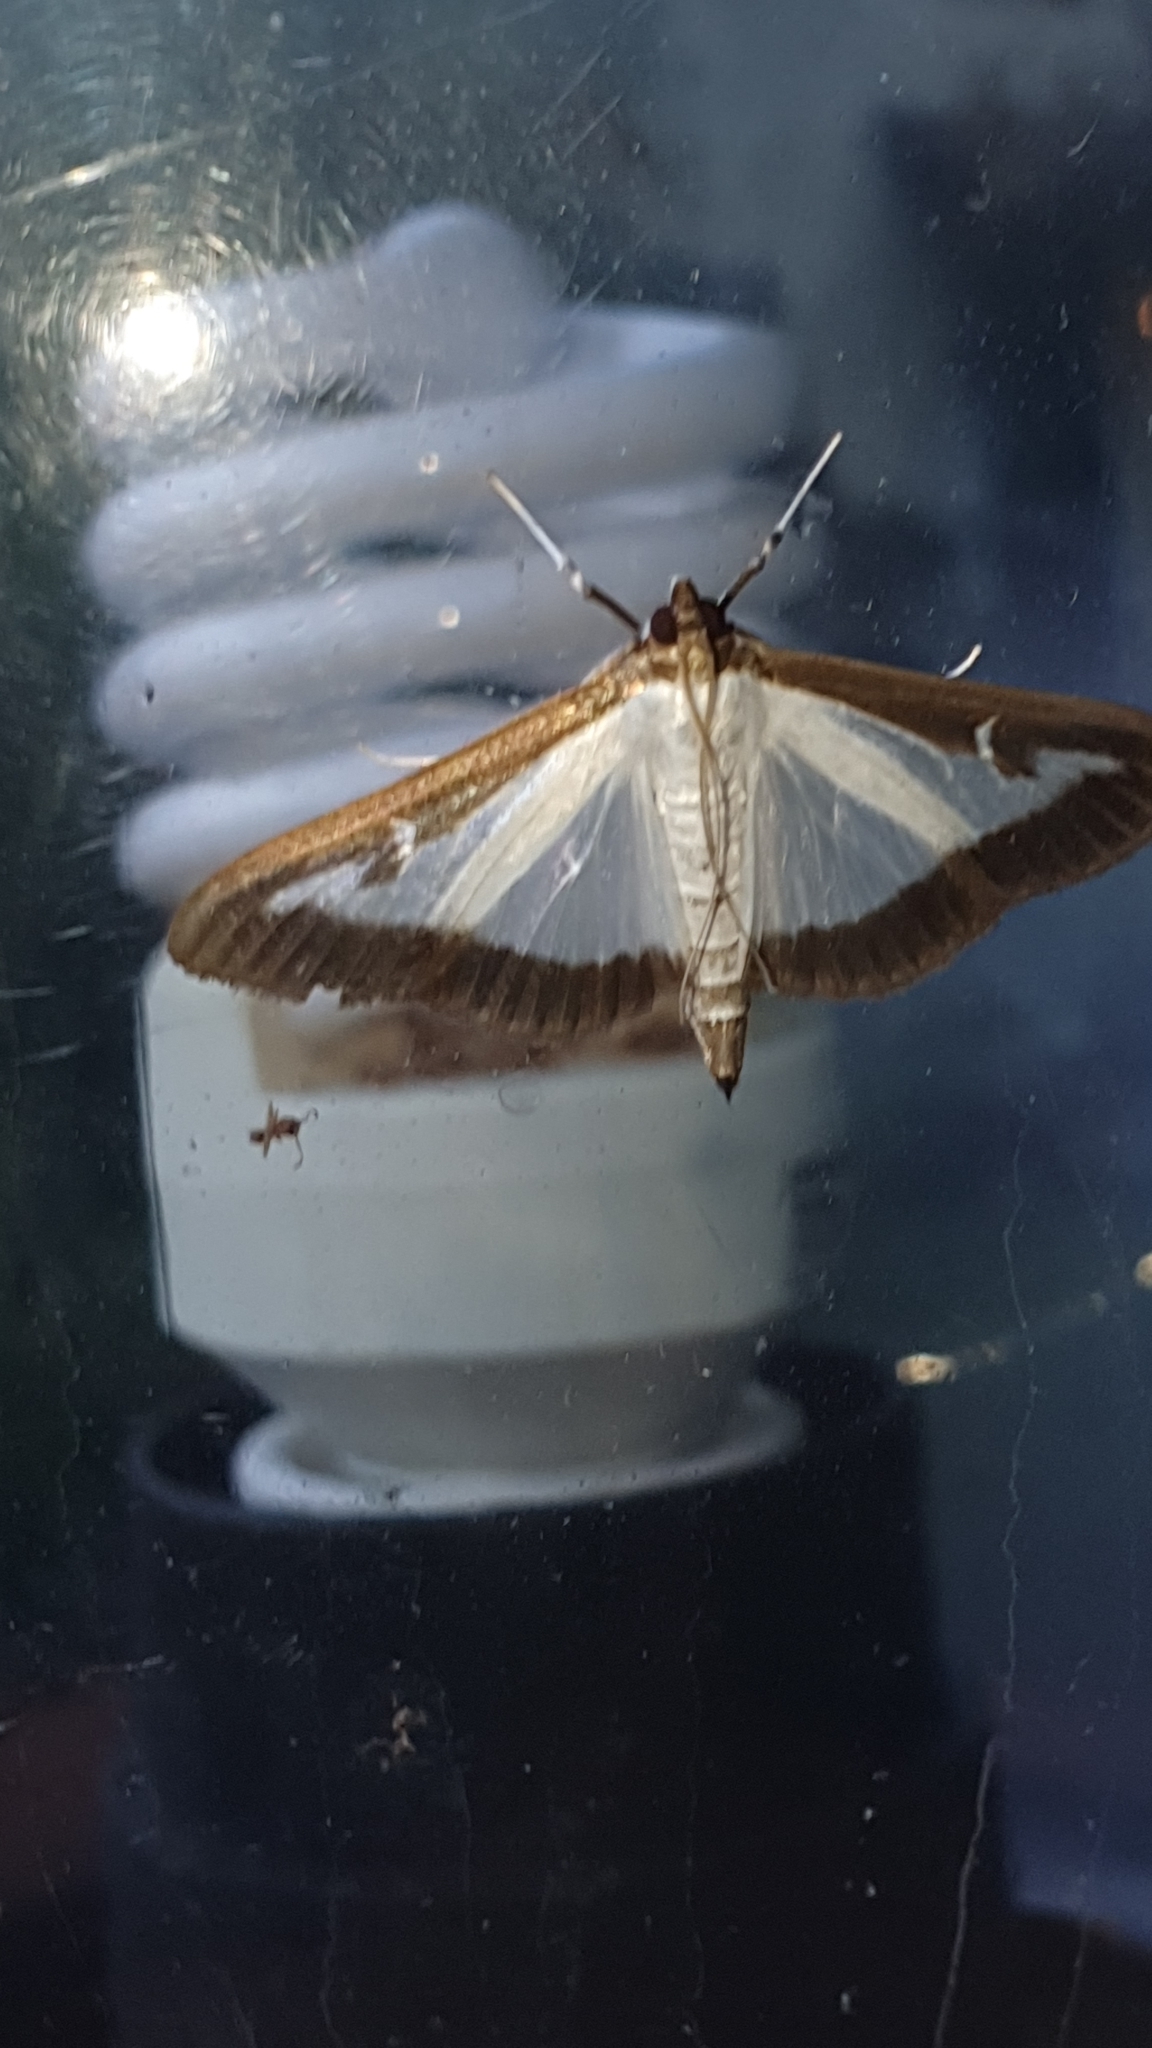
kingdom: Animalia
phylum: Arthropoda
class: Insecta
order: Lepidoptera
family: Crambidae
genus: Cydalima
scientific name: Cydalima perspectalis
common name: Box tree moth
